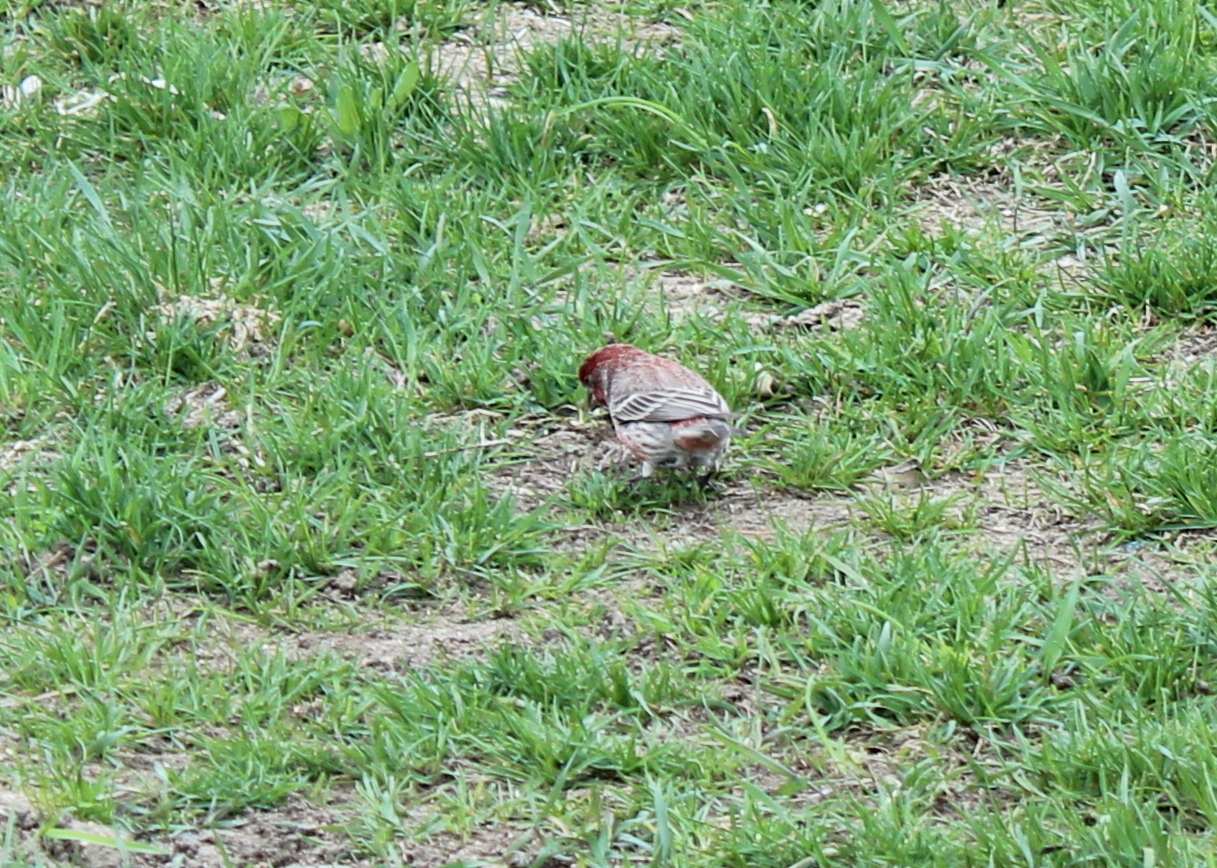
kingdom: Animalia
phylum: Chordata
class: Aves
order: Passeriformes
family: Fringillidae
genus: Haemorhous
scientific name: Haemorhous mexicanus
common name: House finch
